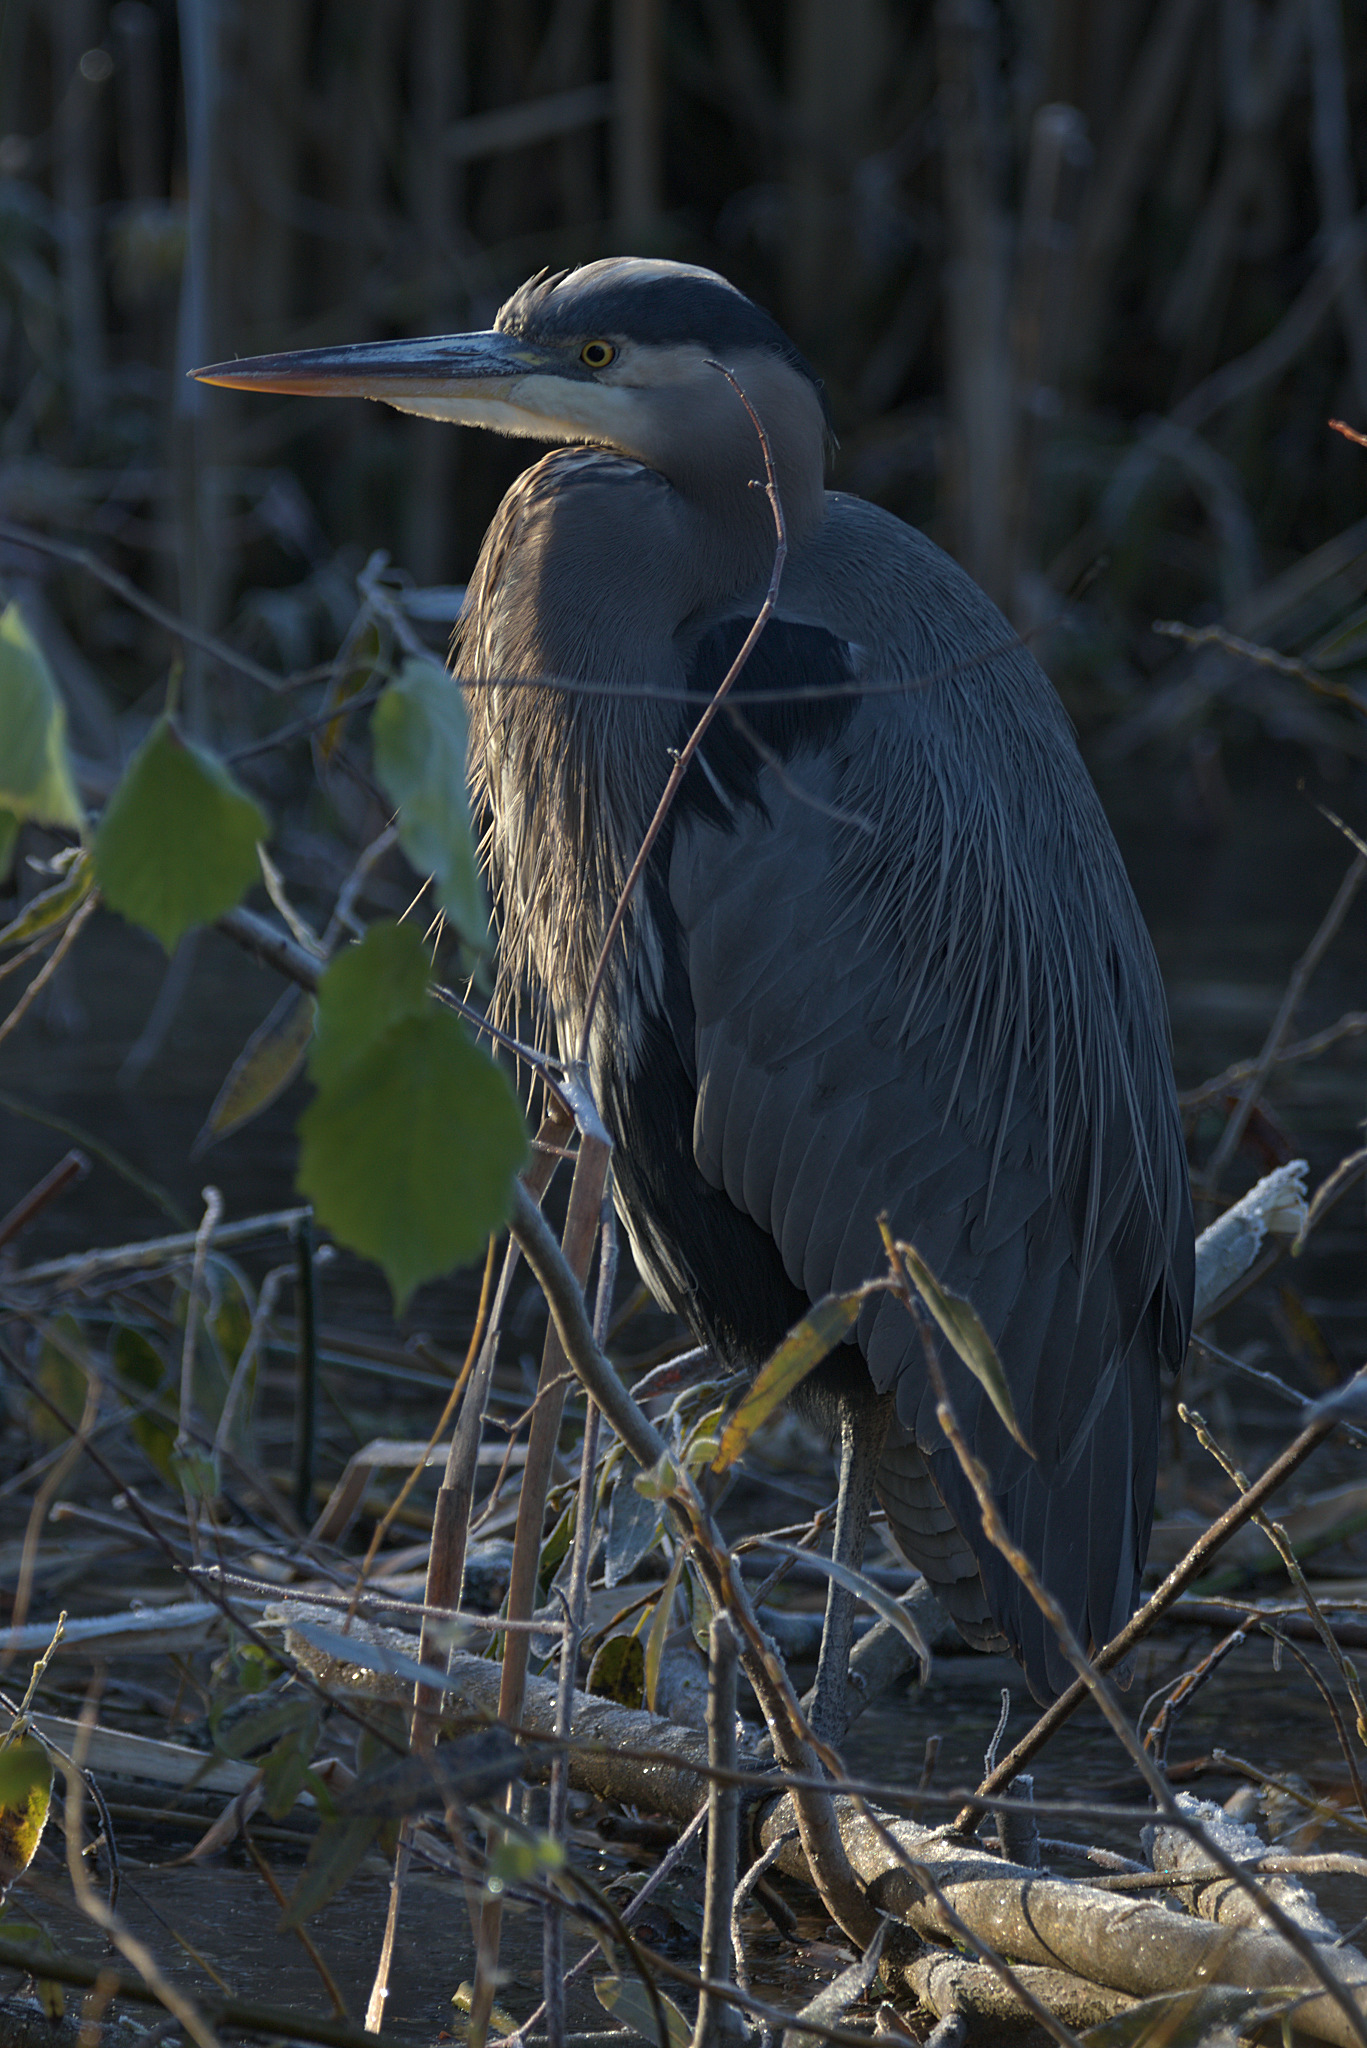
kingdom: Animalia
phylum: Chordata
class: Aves
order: Pelecaniformes
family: Ardeidae
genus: Ardea
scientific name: Ardea herodias
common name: Great blue heron
